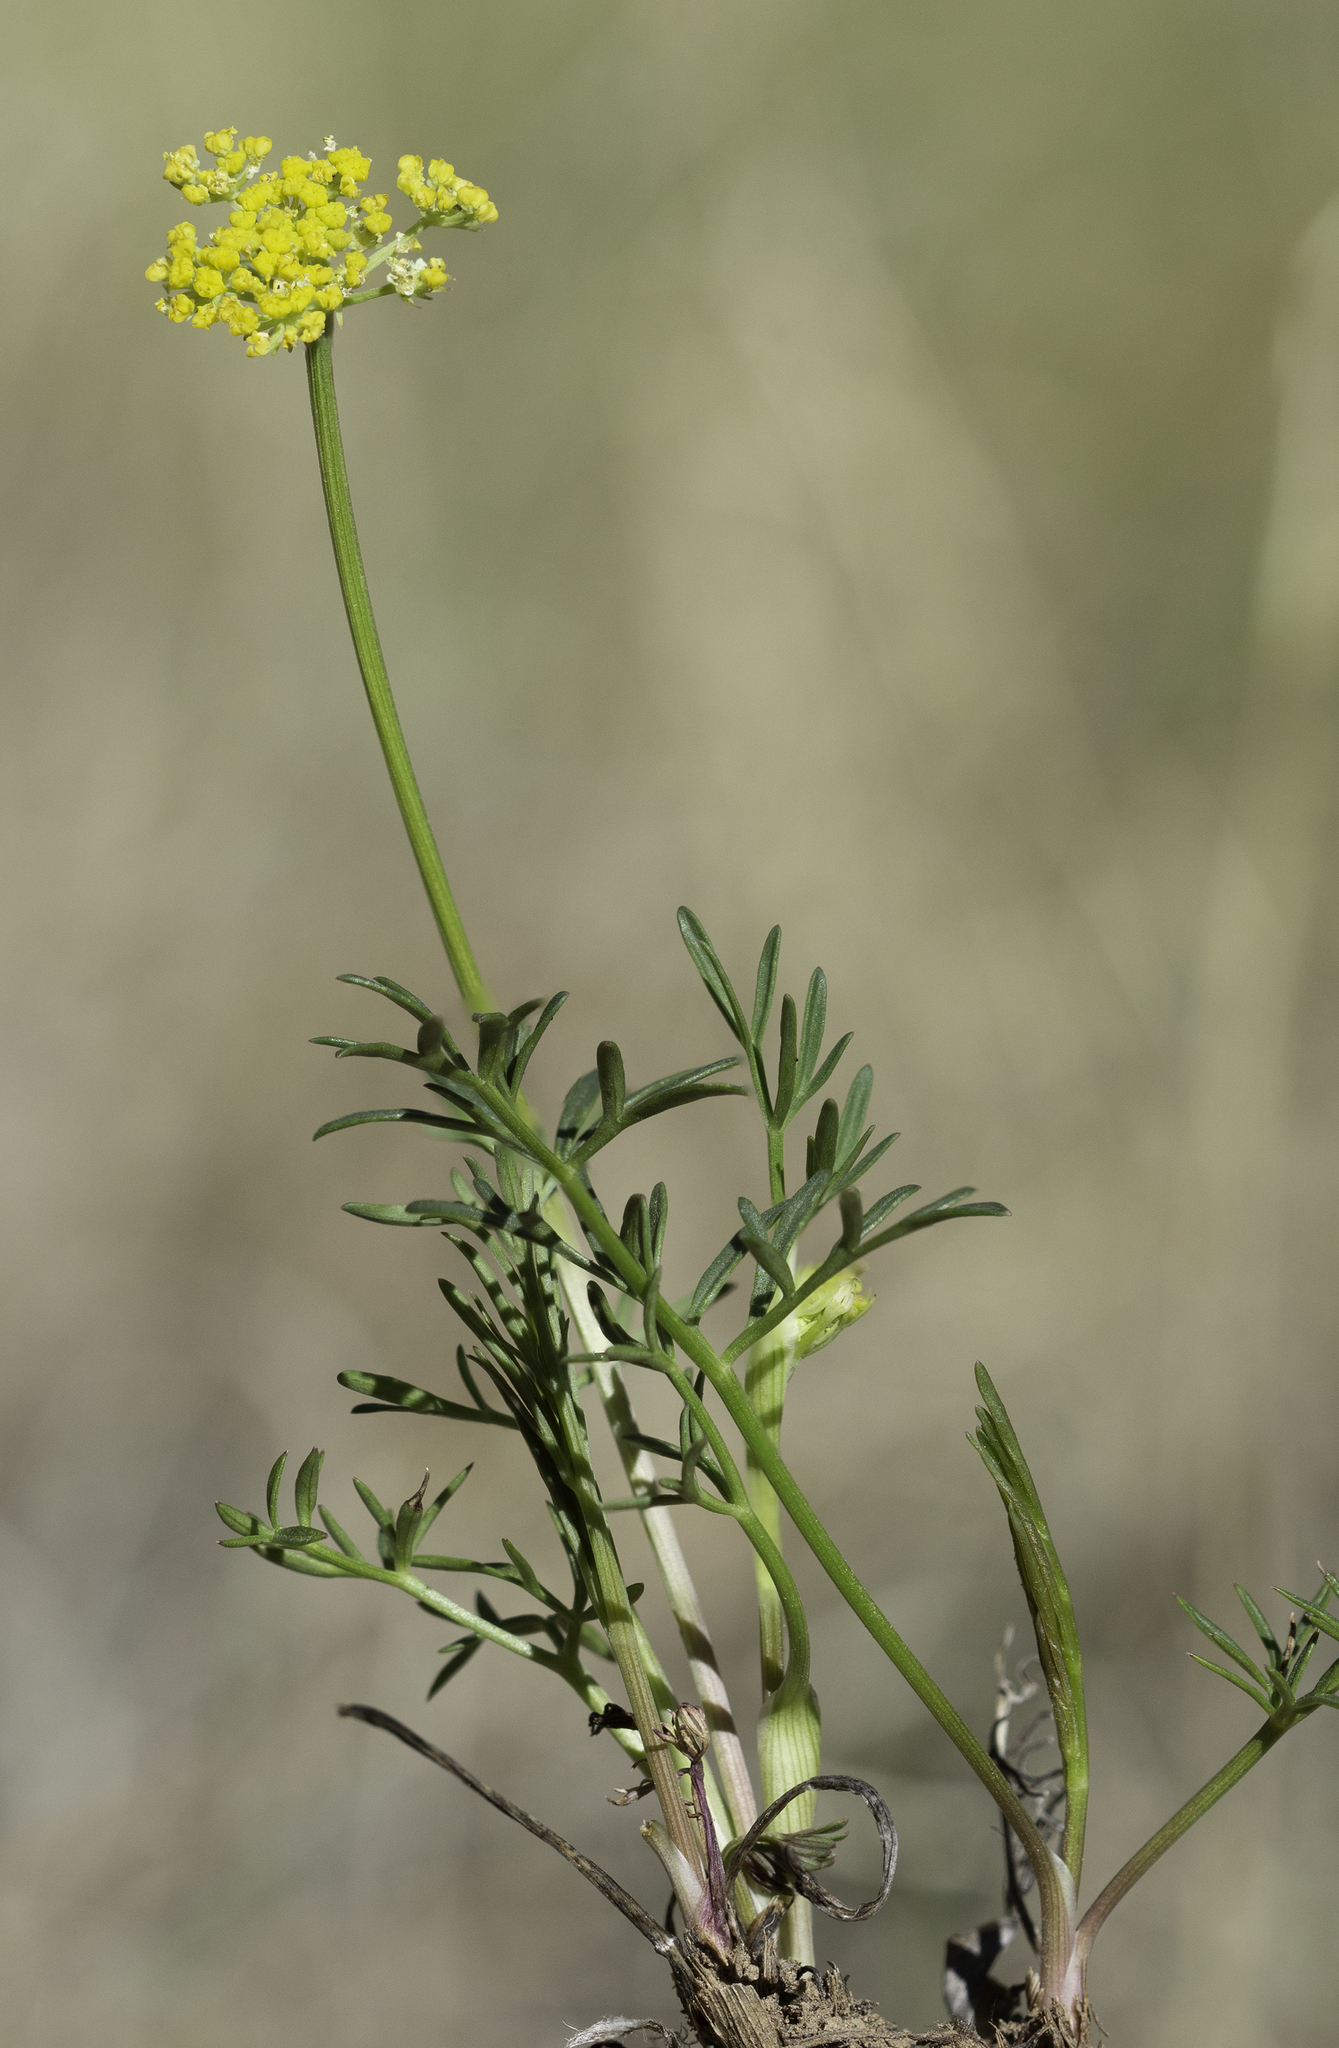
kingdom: Plantae
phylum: Tracheophyta
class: Magnoliopsida
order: Apiales
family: Apiaceae
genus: Cymopterus
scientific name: Cymopterus lemmonii
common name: Lemmon's spring-parsley
